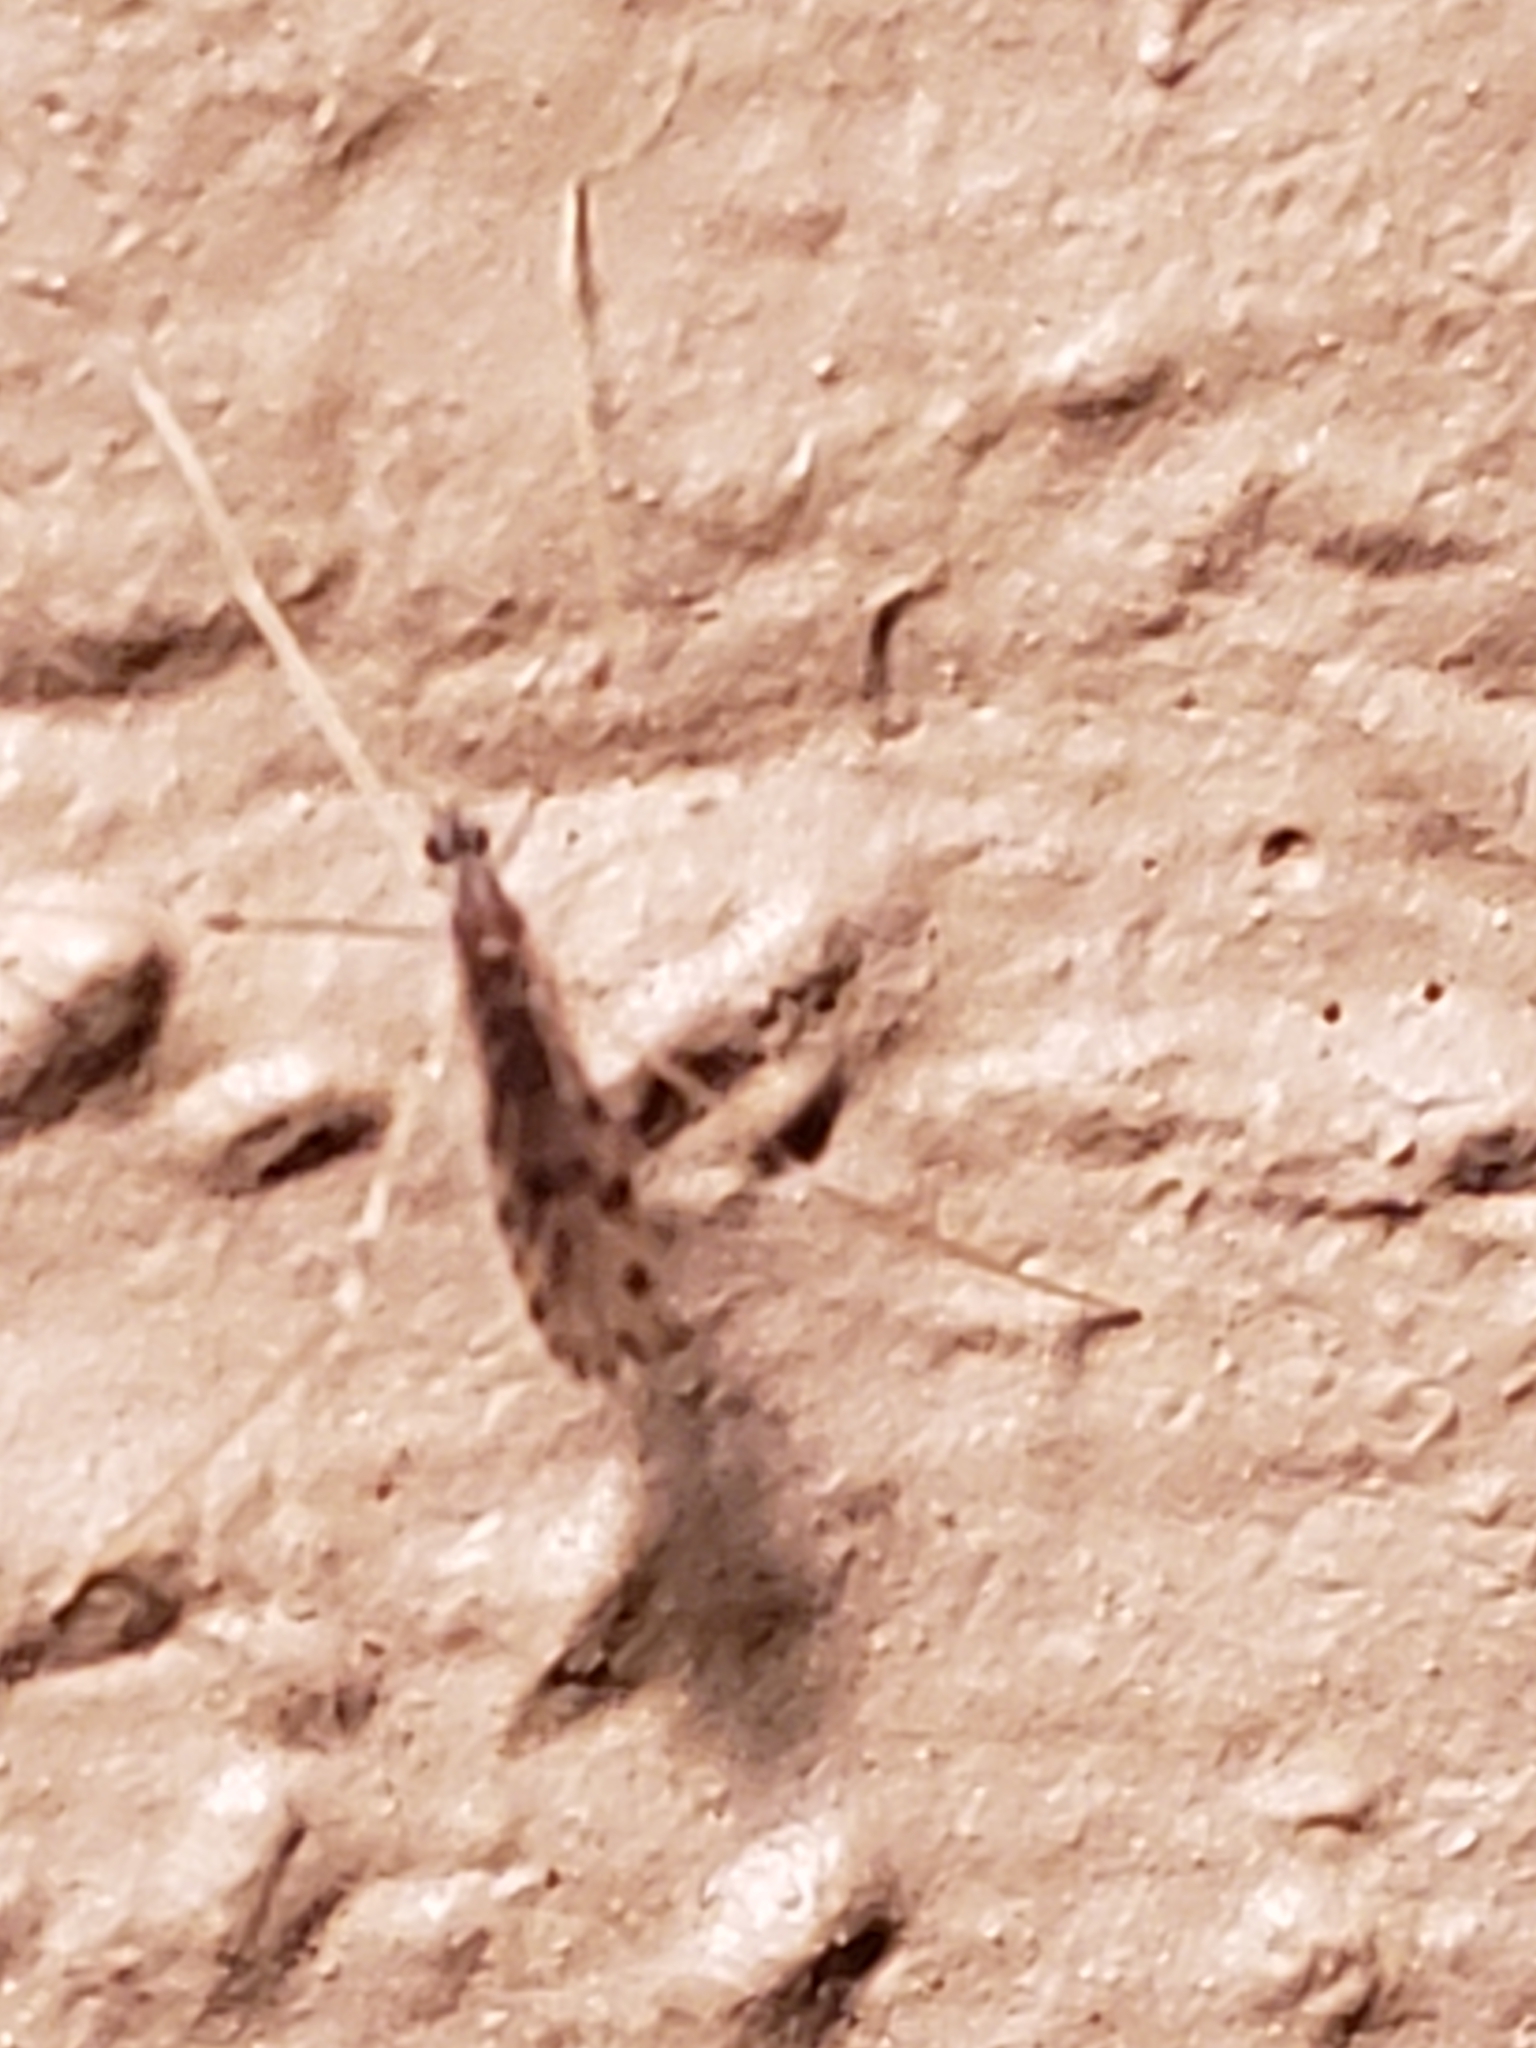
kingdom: Animalia
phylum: Arthropoda
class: Insecta
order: Diptera
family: Limoniidae
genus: Erioptera
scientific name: Erioptera parva
